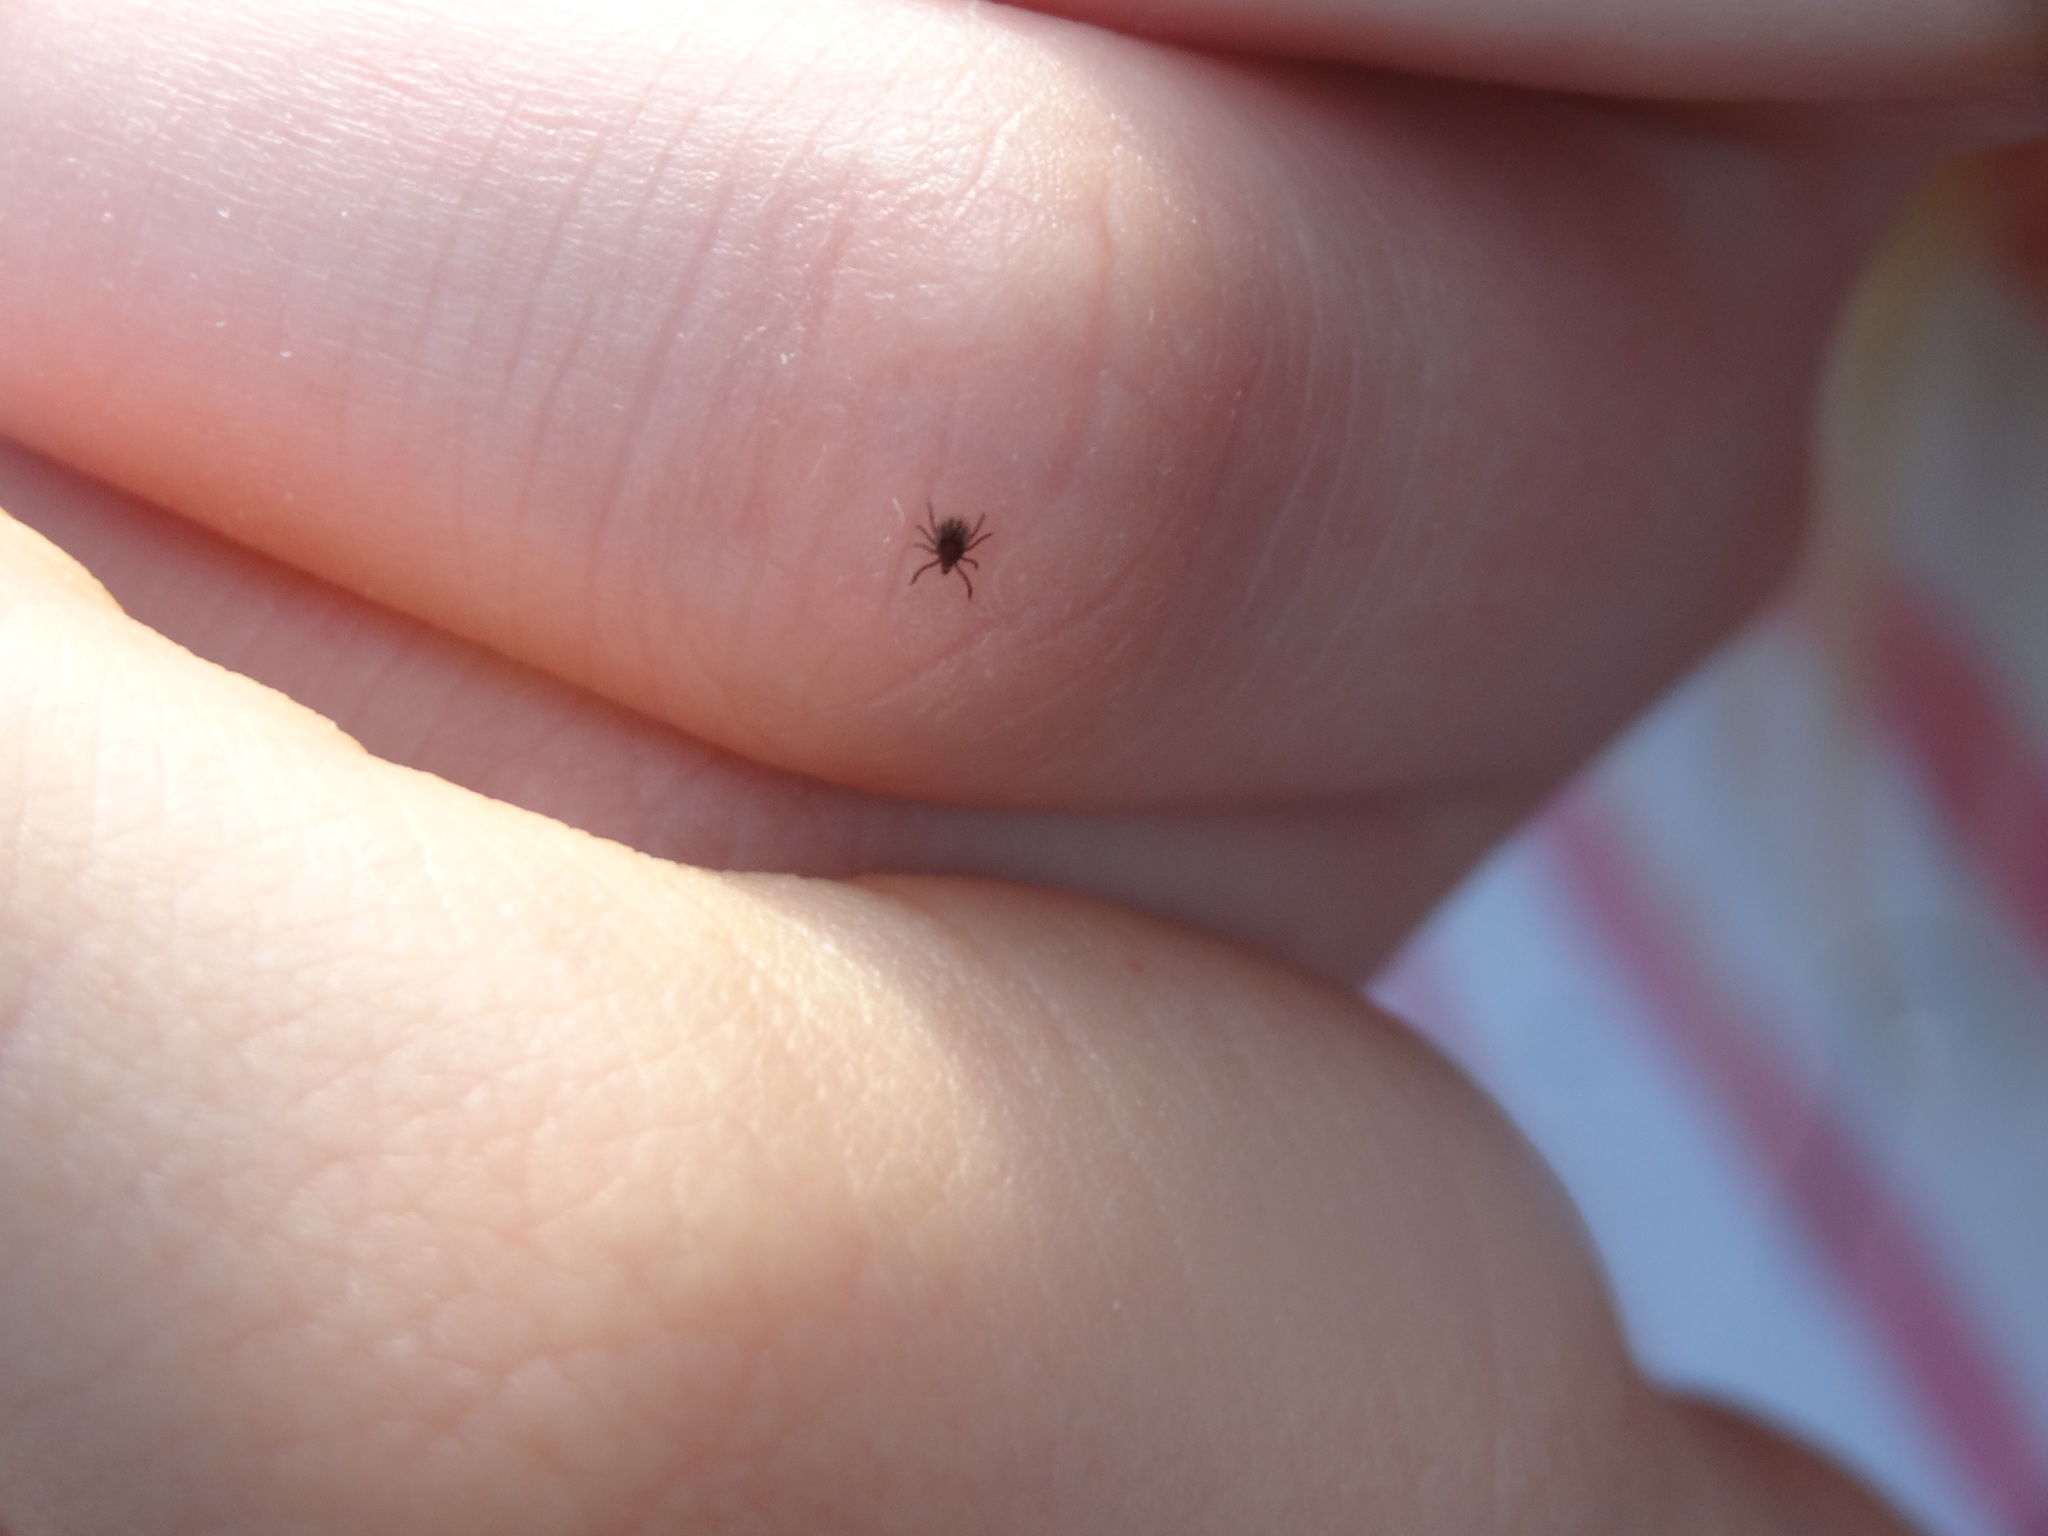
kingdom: Animalia
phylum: Arthropoda
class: Arachnida
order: Ixodida
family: Ixodidae
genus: Ixodes
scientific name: Ixodes ricinus
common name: Castor bean tick
